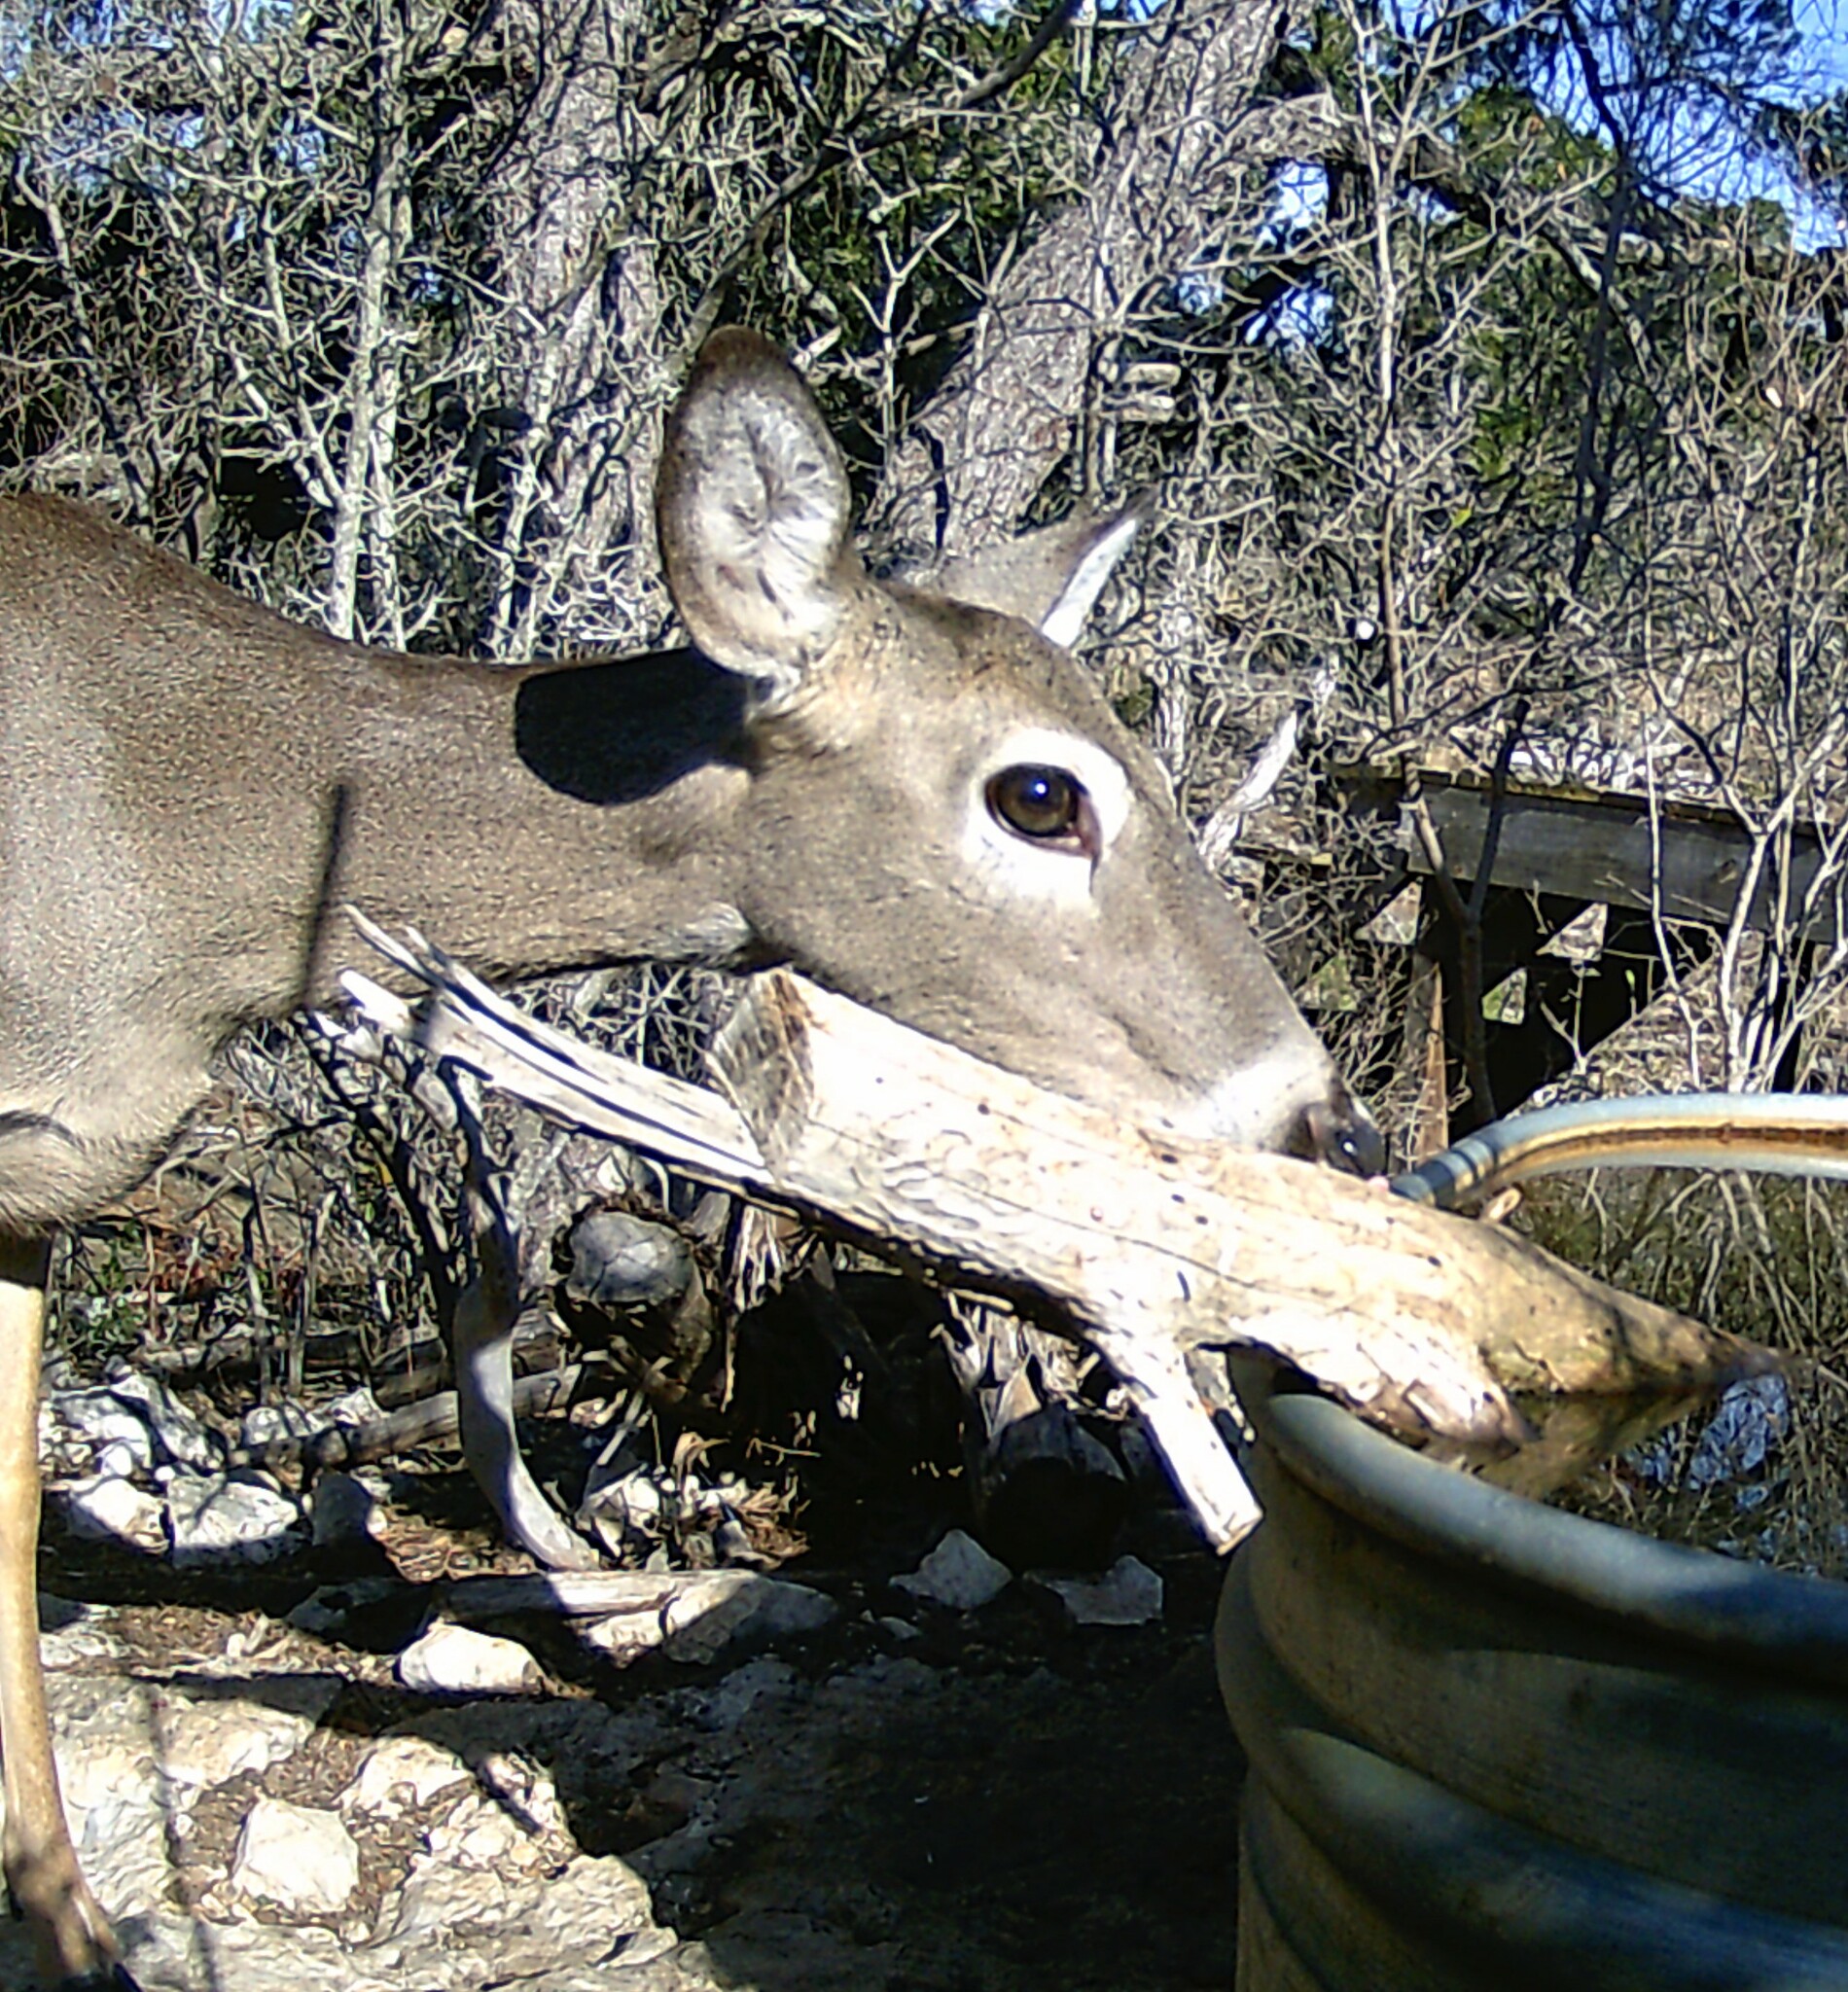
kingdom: Animalia
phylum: Chordata
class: Mammalia
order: Artiodactyla
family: Cervidae
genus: Odocoileus
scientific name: Odocoileus virginianus
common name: White-tailed deer
